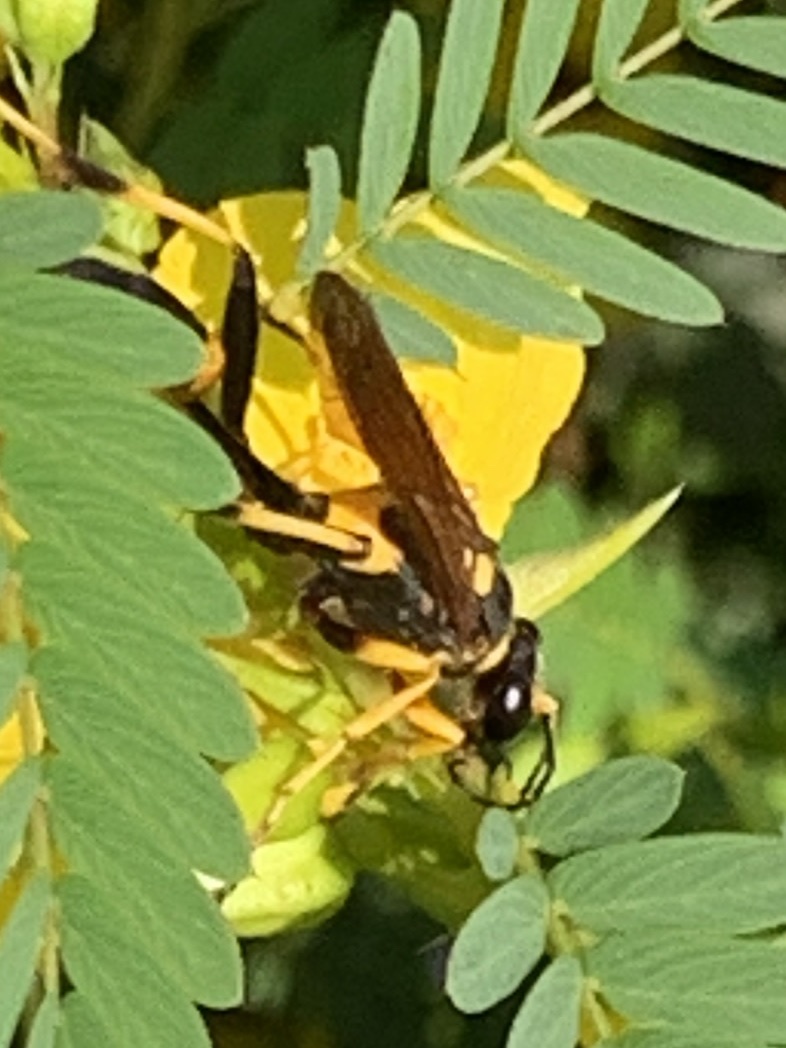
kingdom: Animalia
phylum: Arthropoda
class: Insecta
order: Hymenoptera
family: Sphecidae
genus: Sceliphron
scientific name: Sceliphron caementarium
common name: Mud dauber
